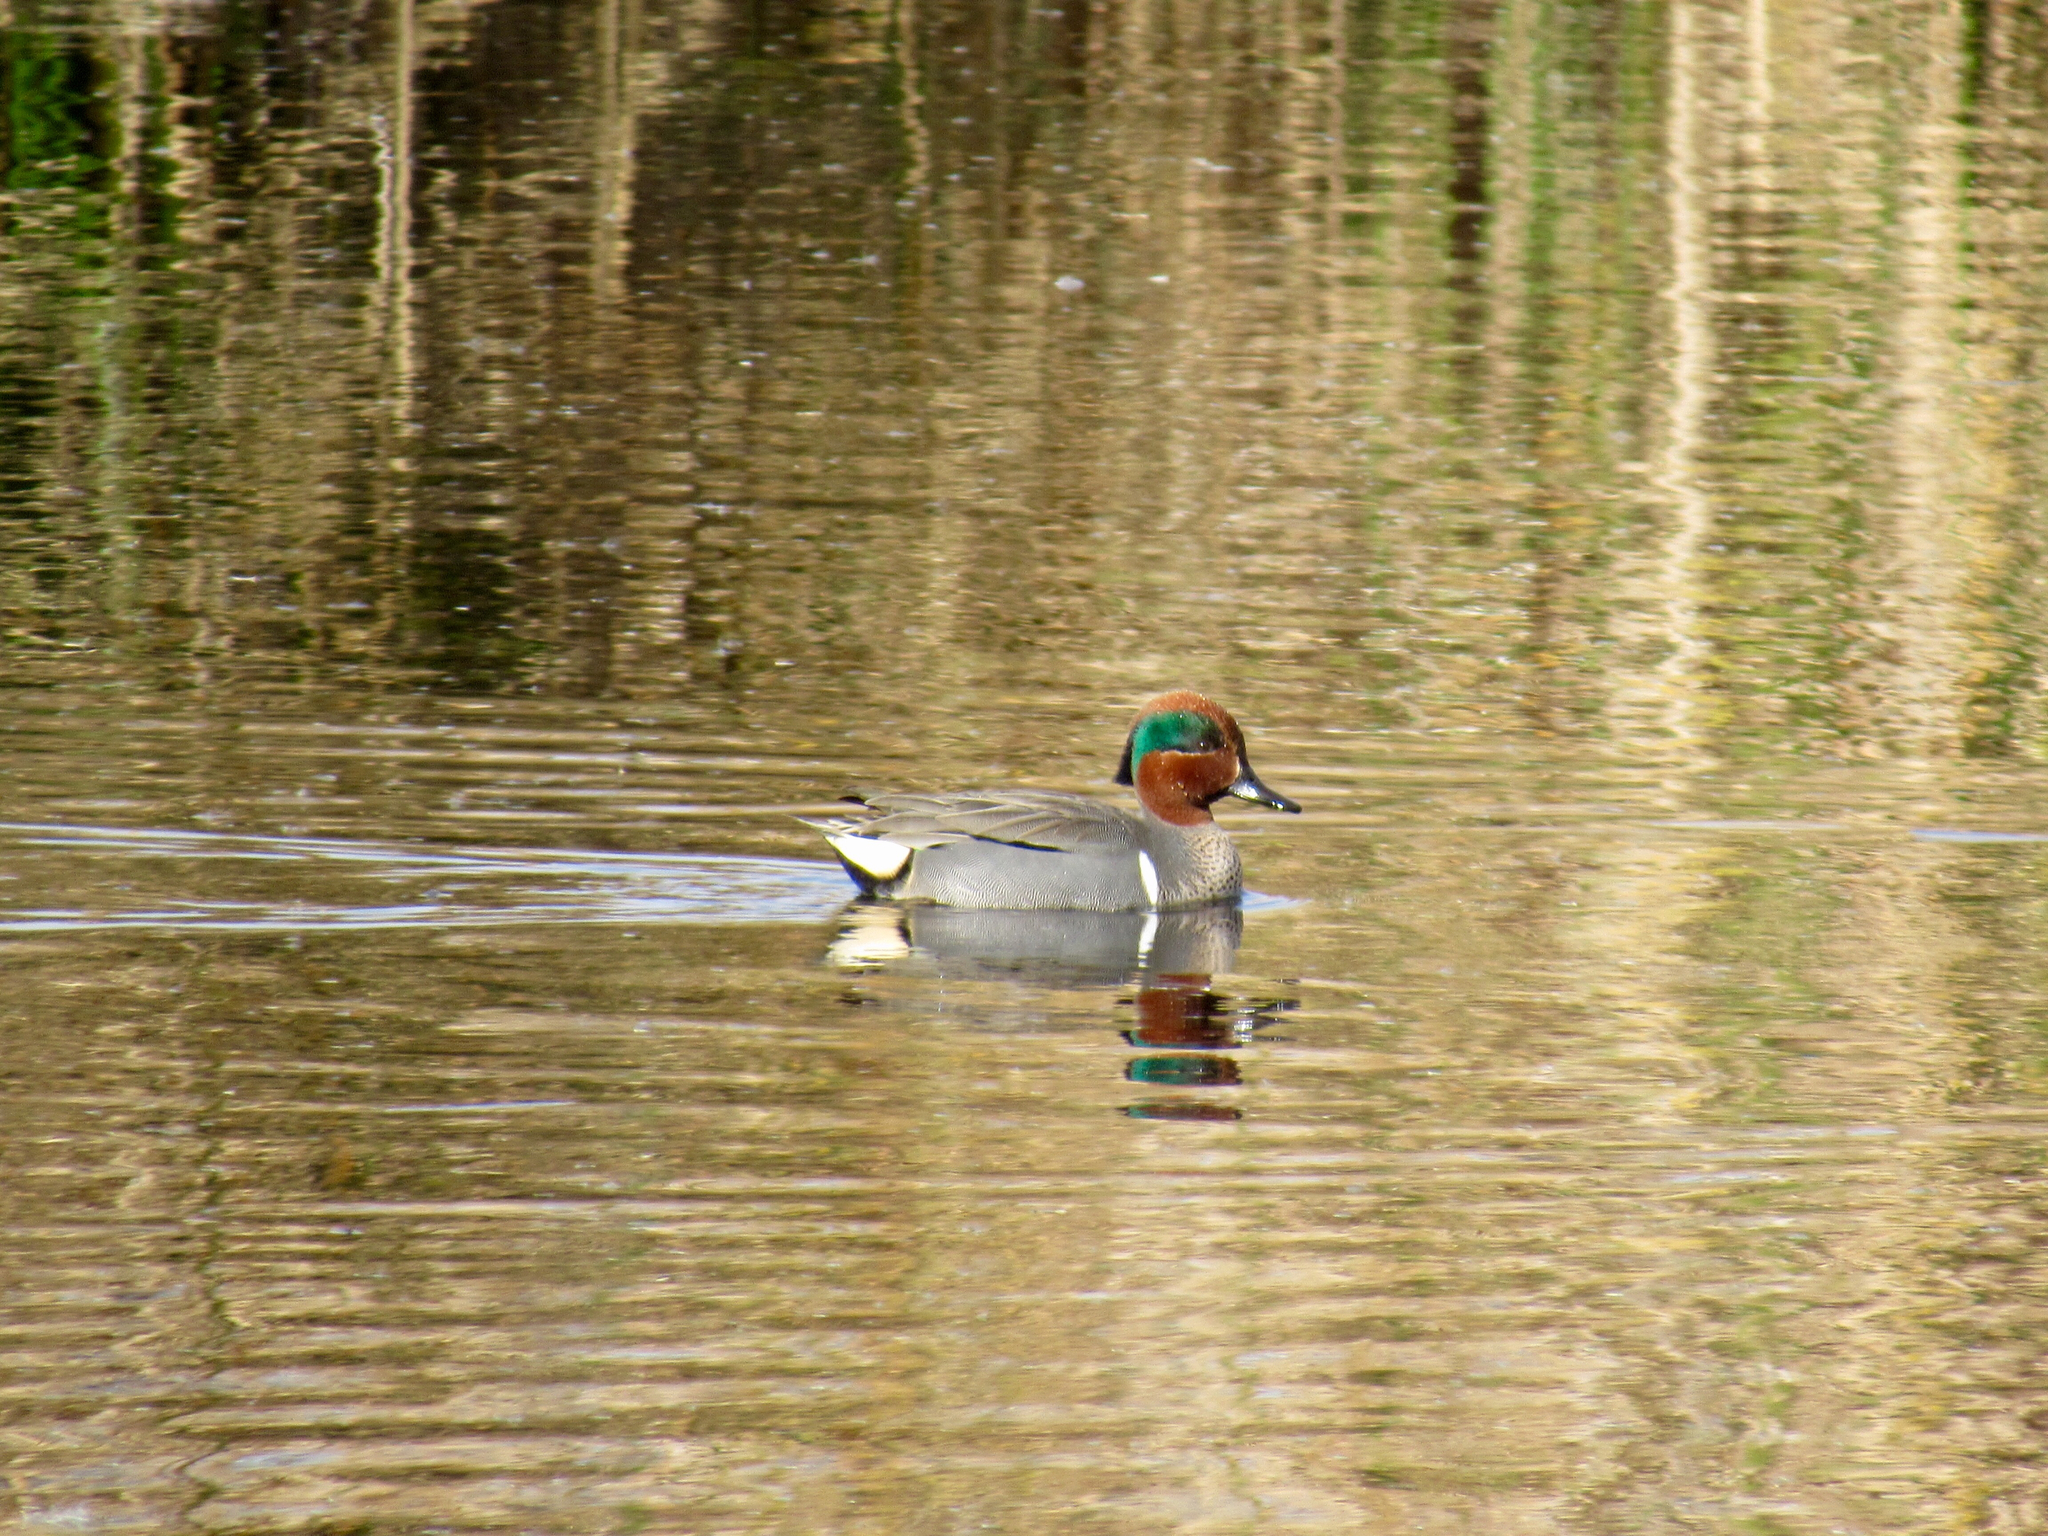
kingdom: Animalia
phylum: Chordata
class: Aves
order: Anseriformes
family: Anatidae
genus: Anas
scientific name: Anas crecca
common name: Eurasian teal
